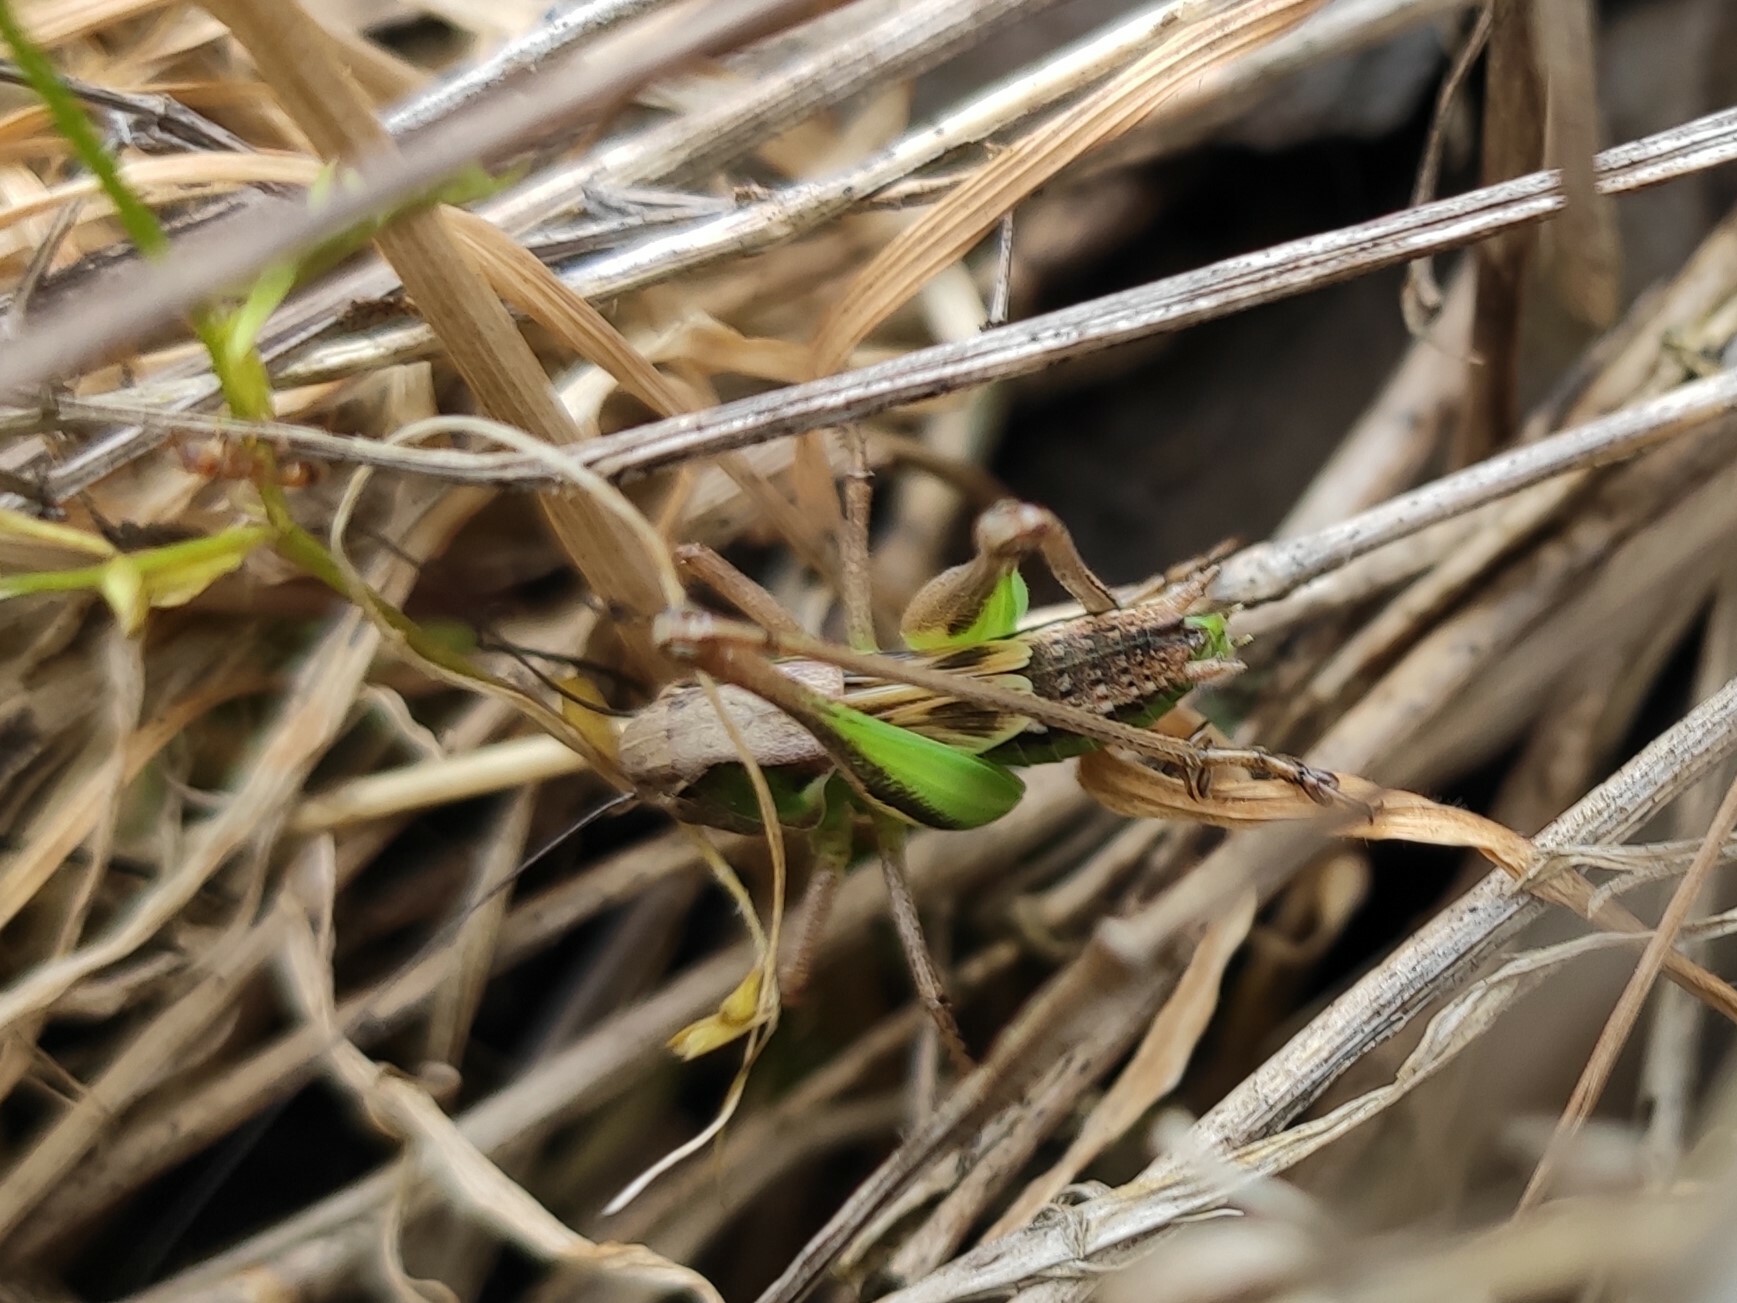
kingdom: Animalia
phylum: Arthropoda
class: Insecta
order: Orthoptera
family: Tettigoniidae
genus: Platycleis
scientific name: Platycleis albopunctata
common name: Grey bush-cricket
